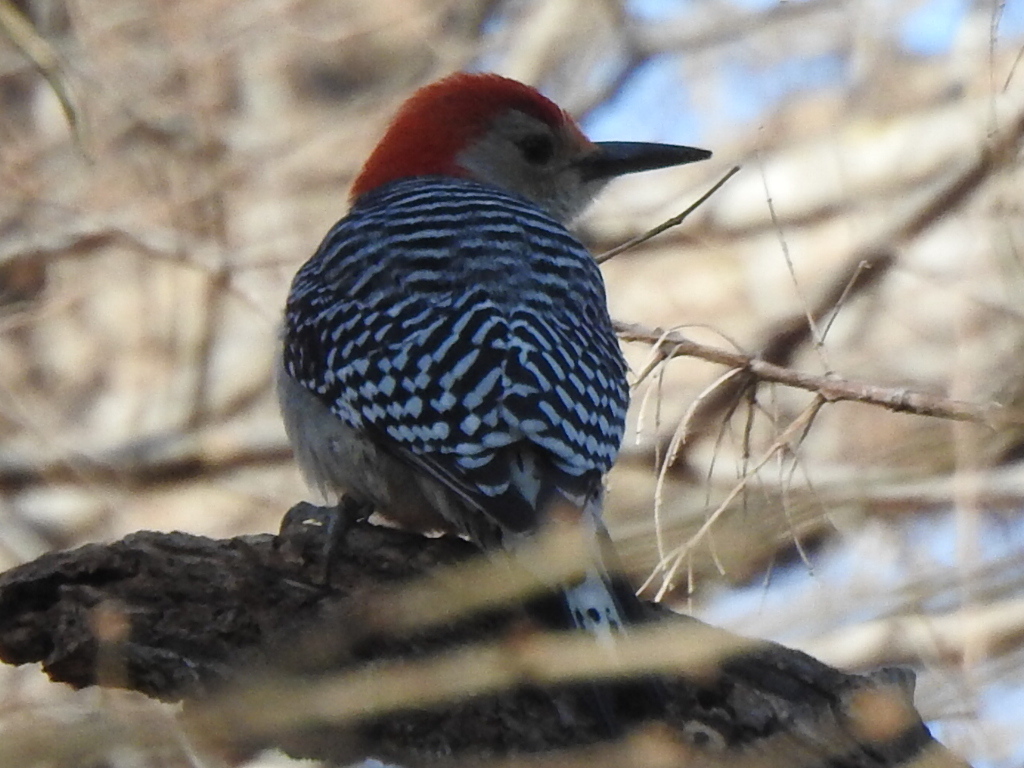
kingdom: Animalia
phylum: Chordata
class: Aves
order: Piciformes
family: Picidae
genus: Melanerpes
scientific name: Melanerpes carolinus
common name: Red-bellied woodpecker
